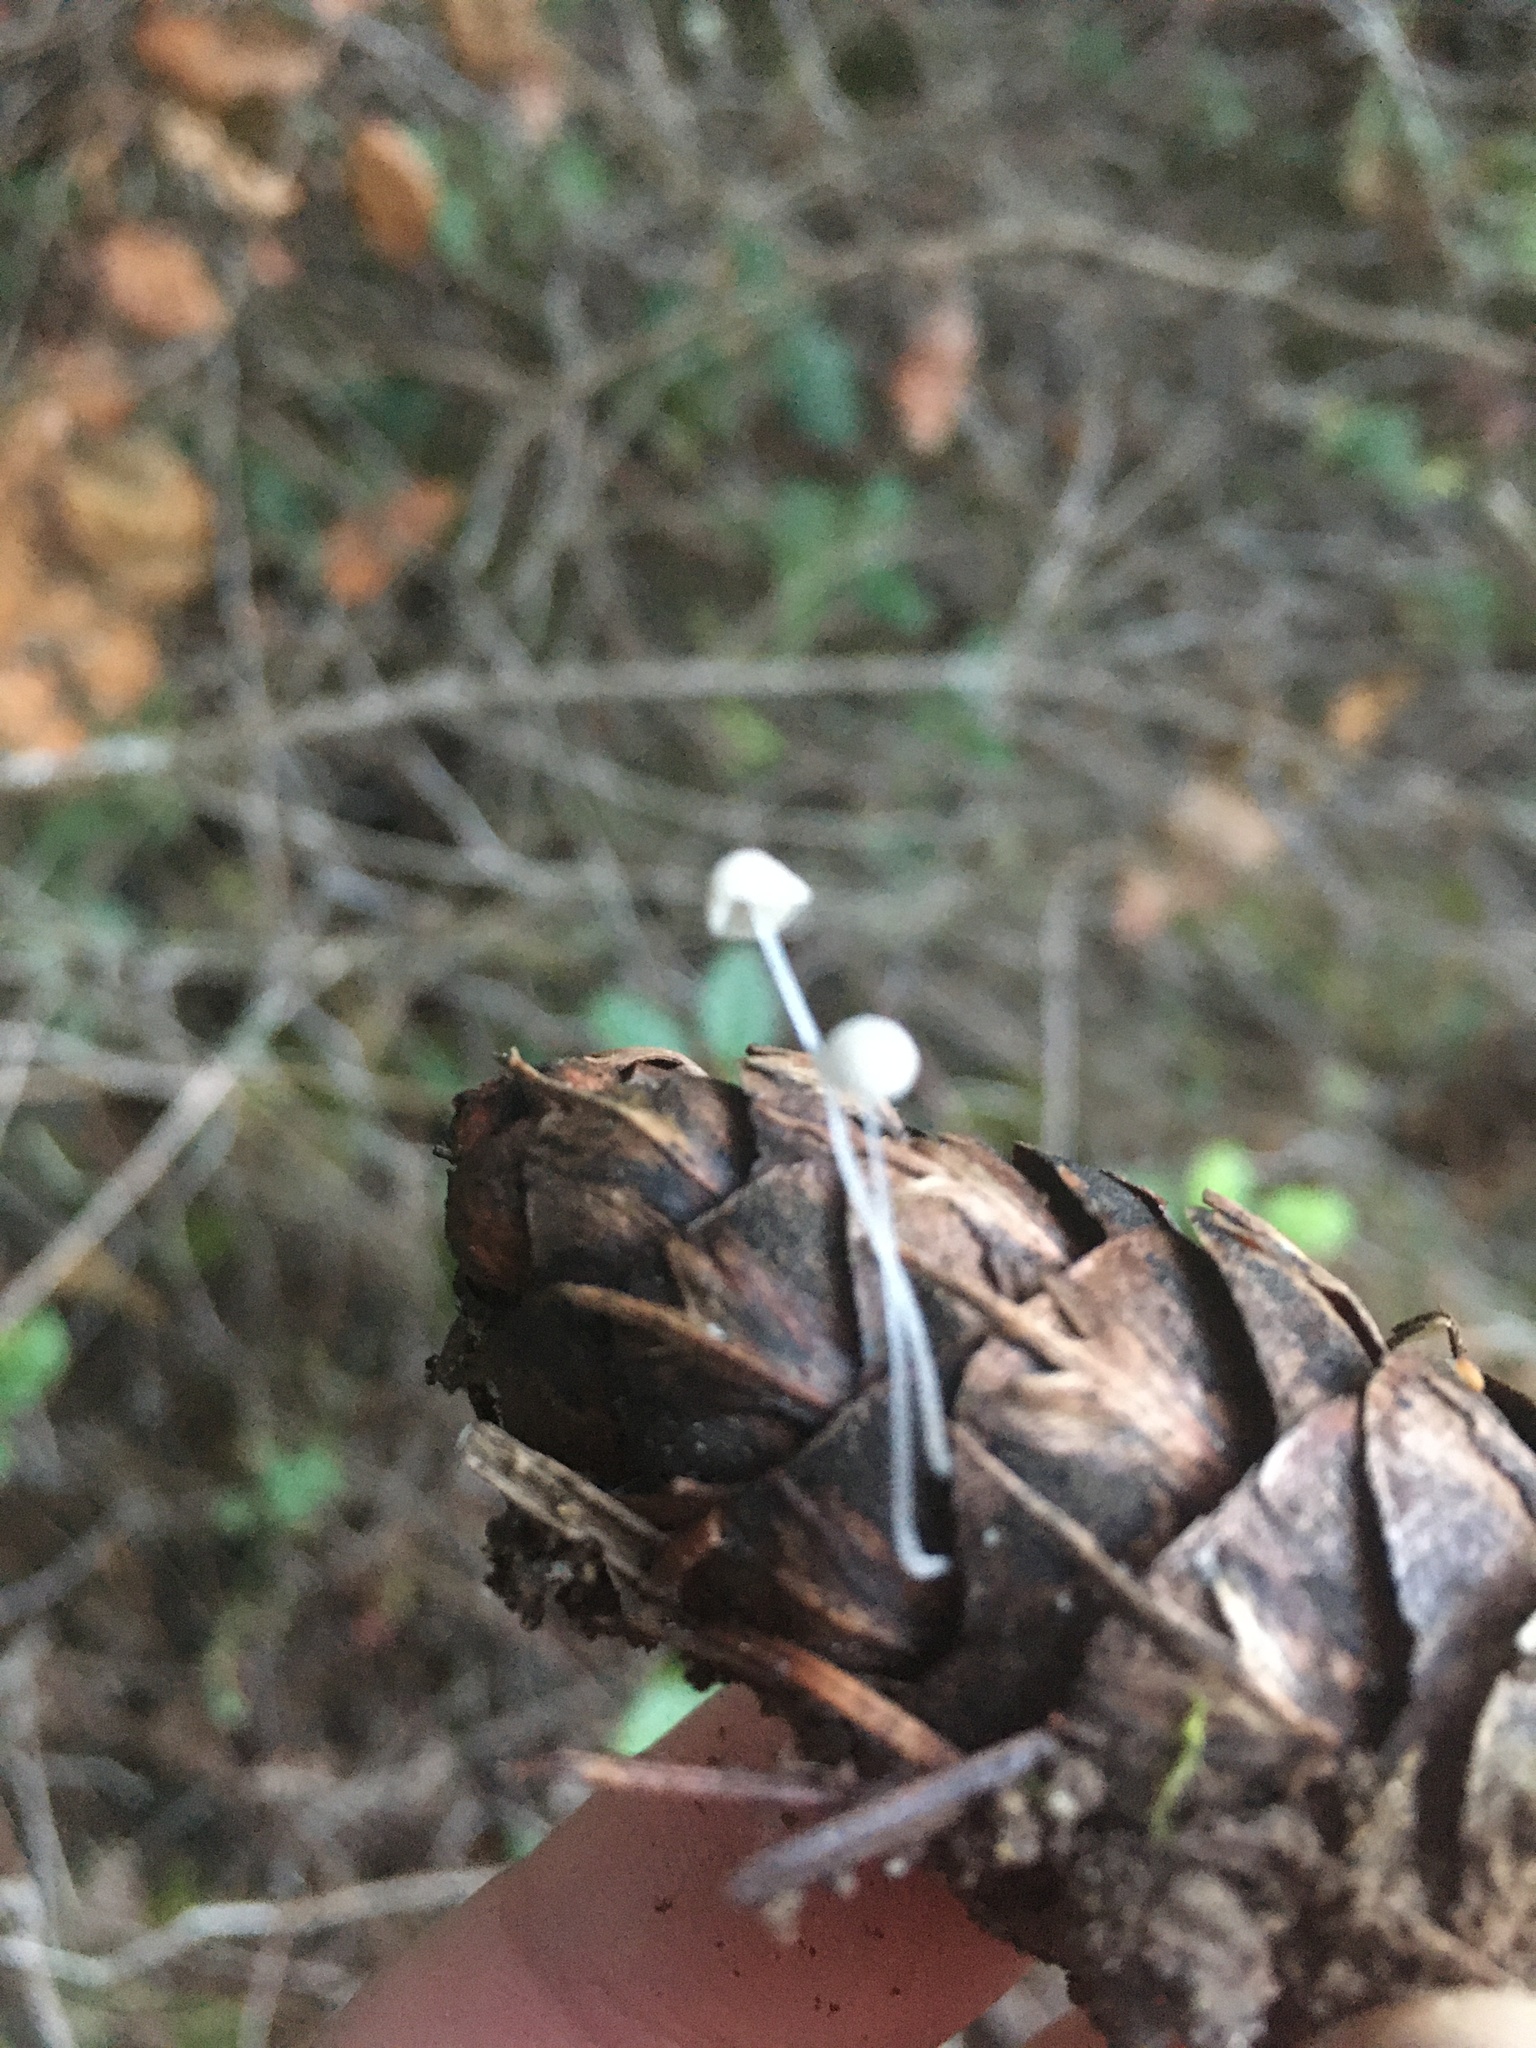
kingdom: Fungi
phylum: Basidiomycota
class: Agaricomycetes
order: Agaricales
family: Physalacriaceae
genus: Strobilurus
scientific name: Strobilurus trullisatus
